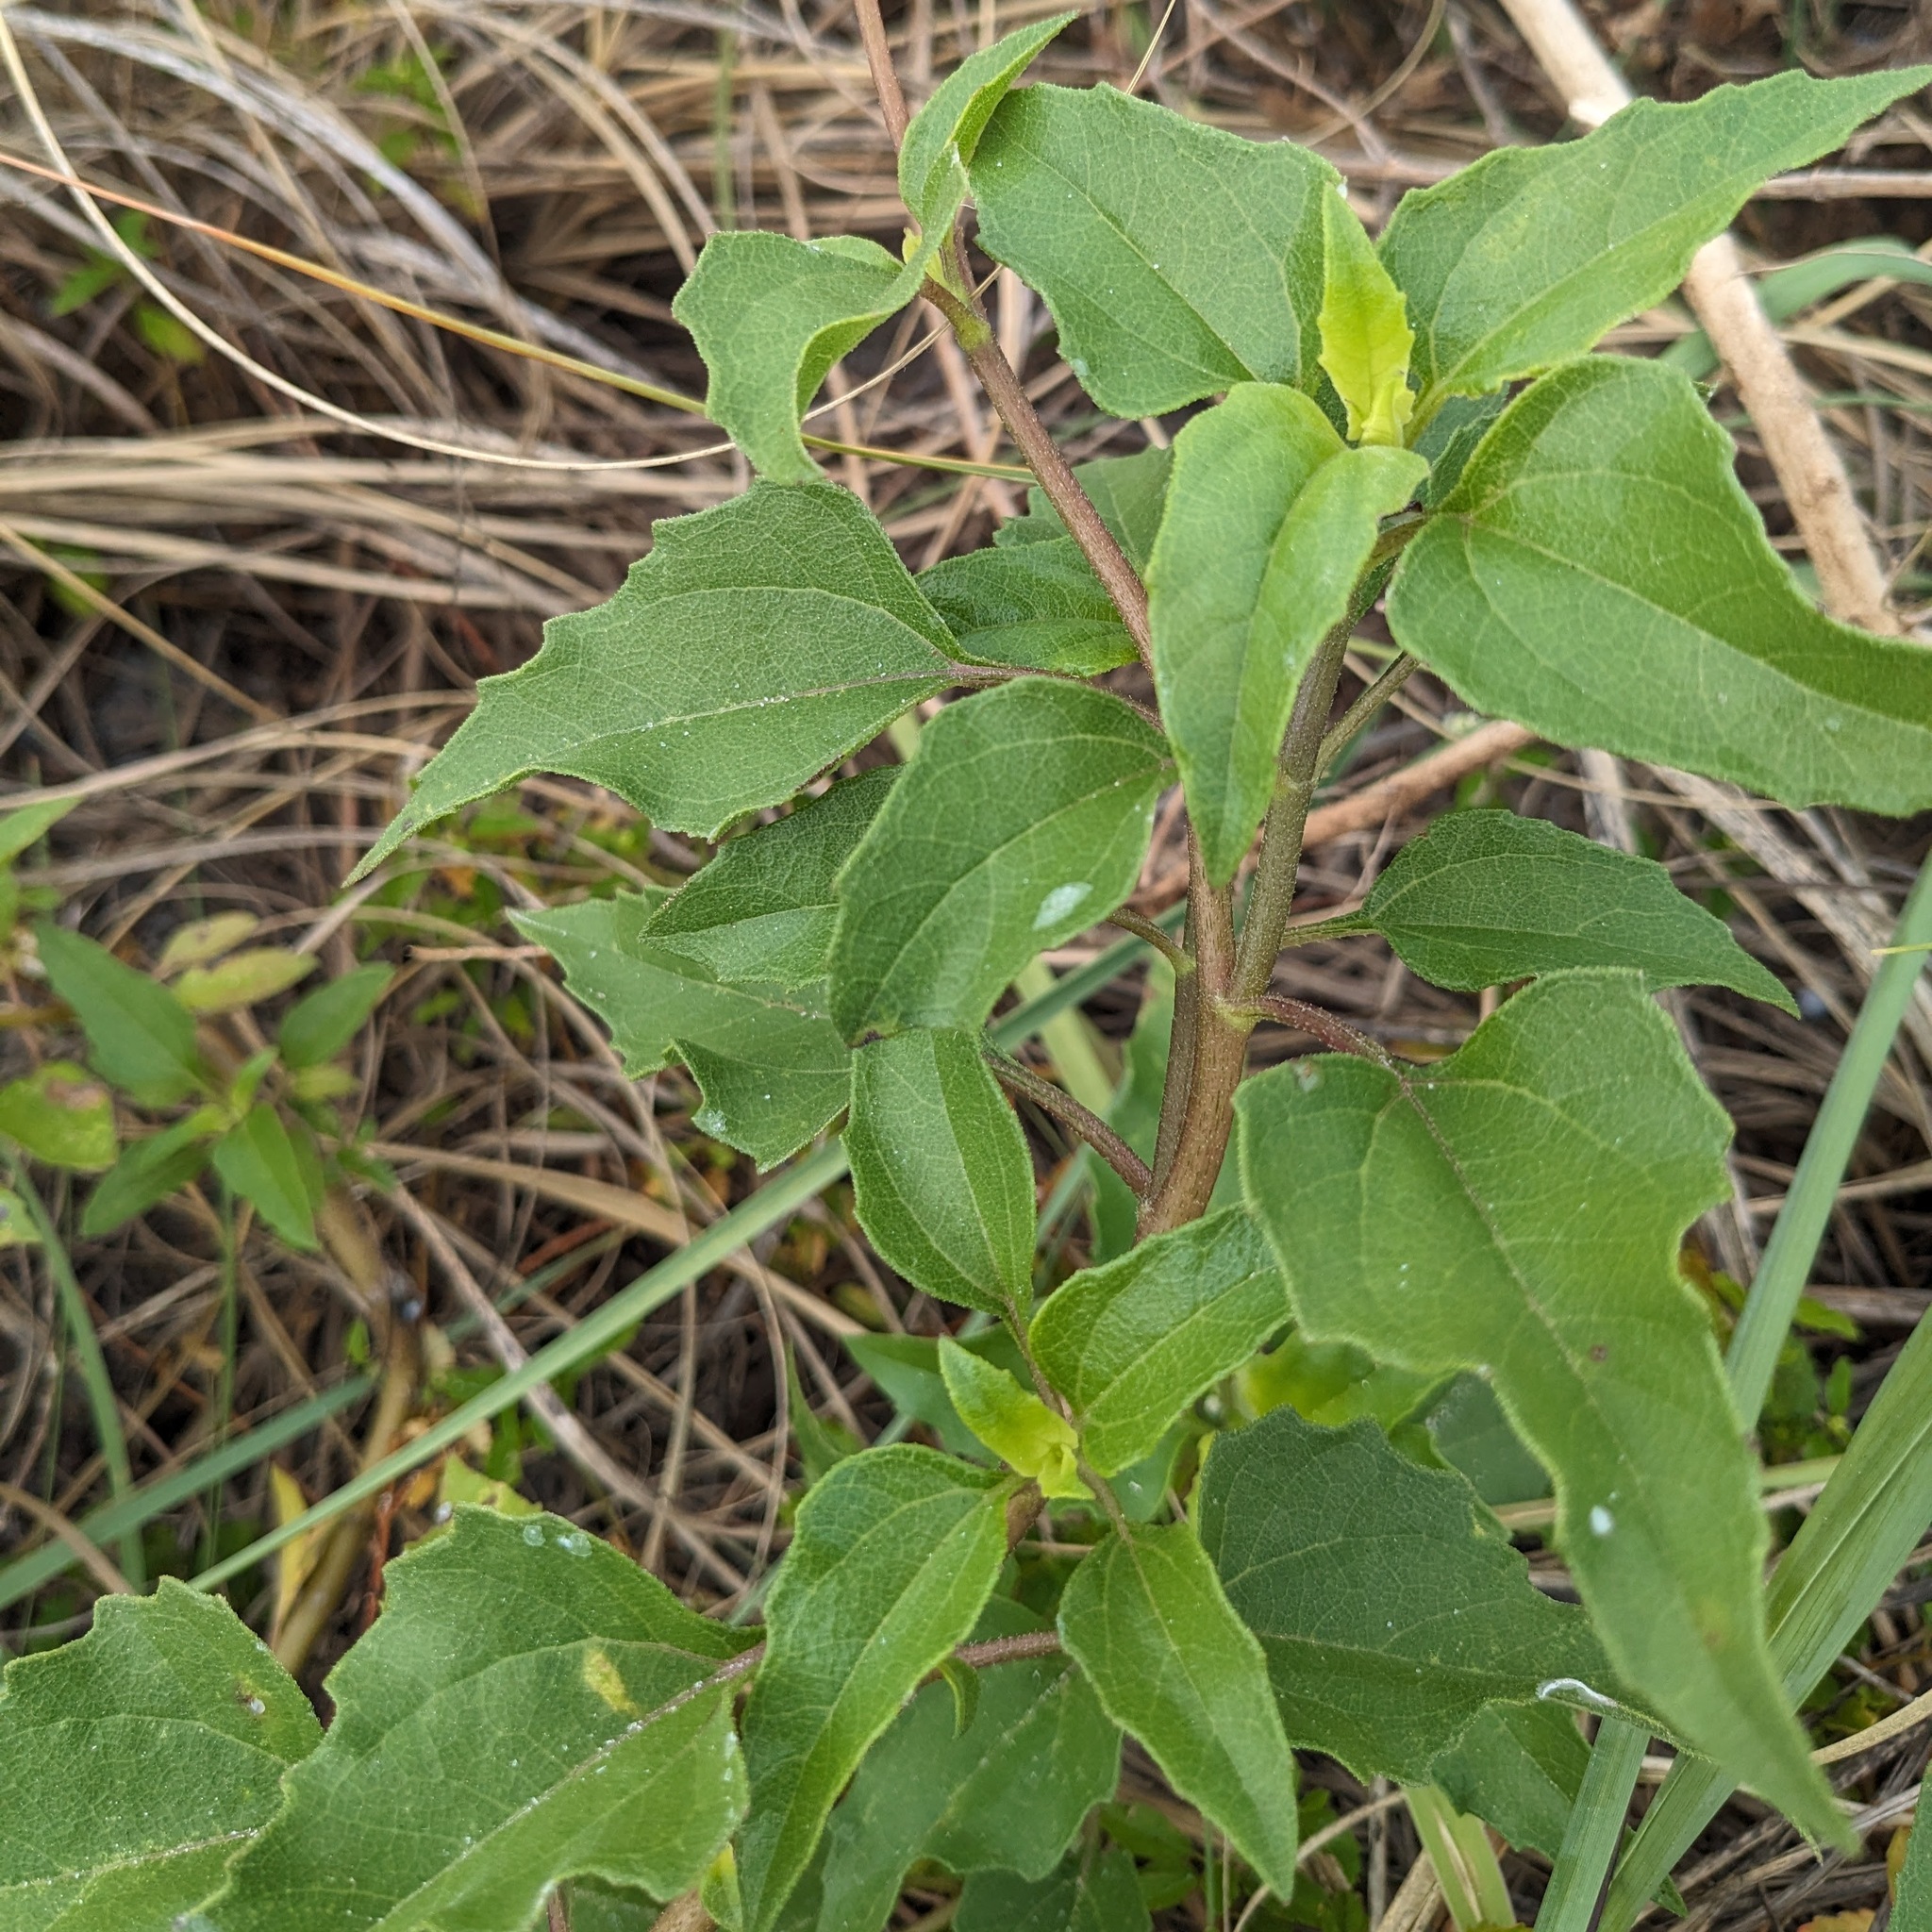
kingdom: Plantae
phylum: Tracheophyta
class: Magnoliopsida
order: Asterales
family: Asteraceae
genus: Helianthus
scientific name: Helianthus debilis
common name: Weak sunflower
